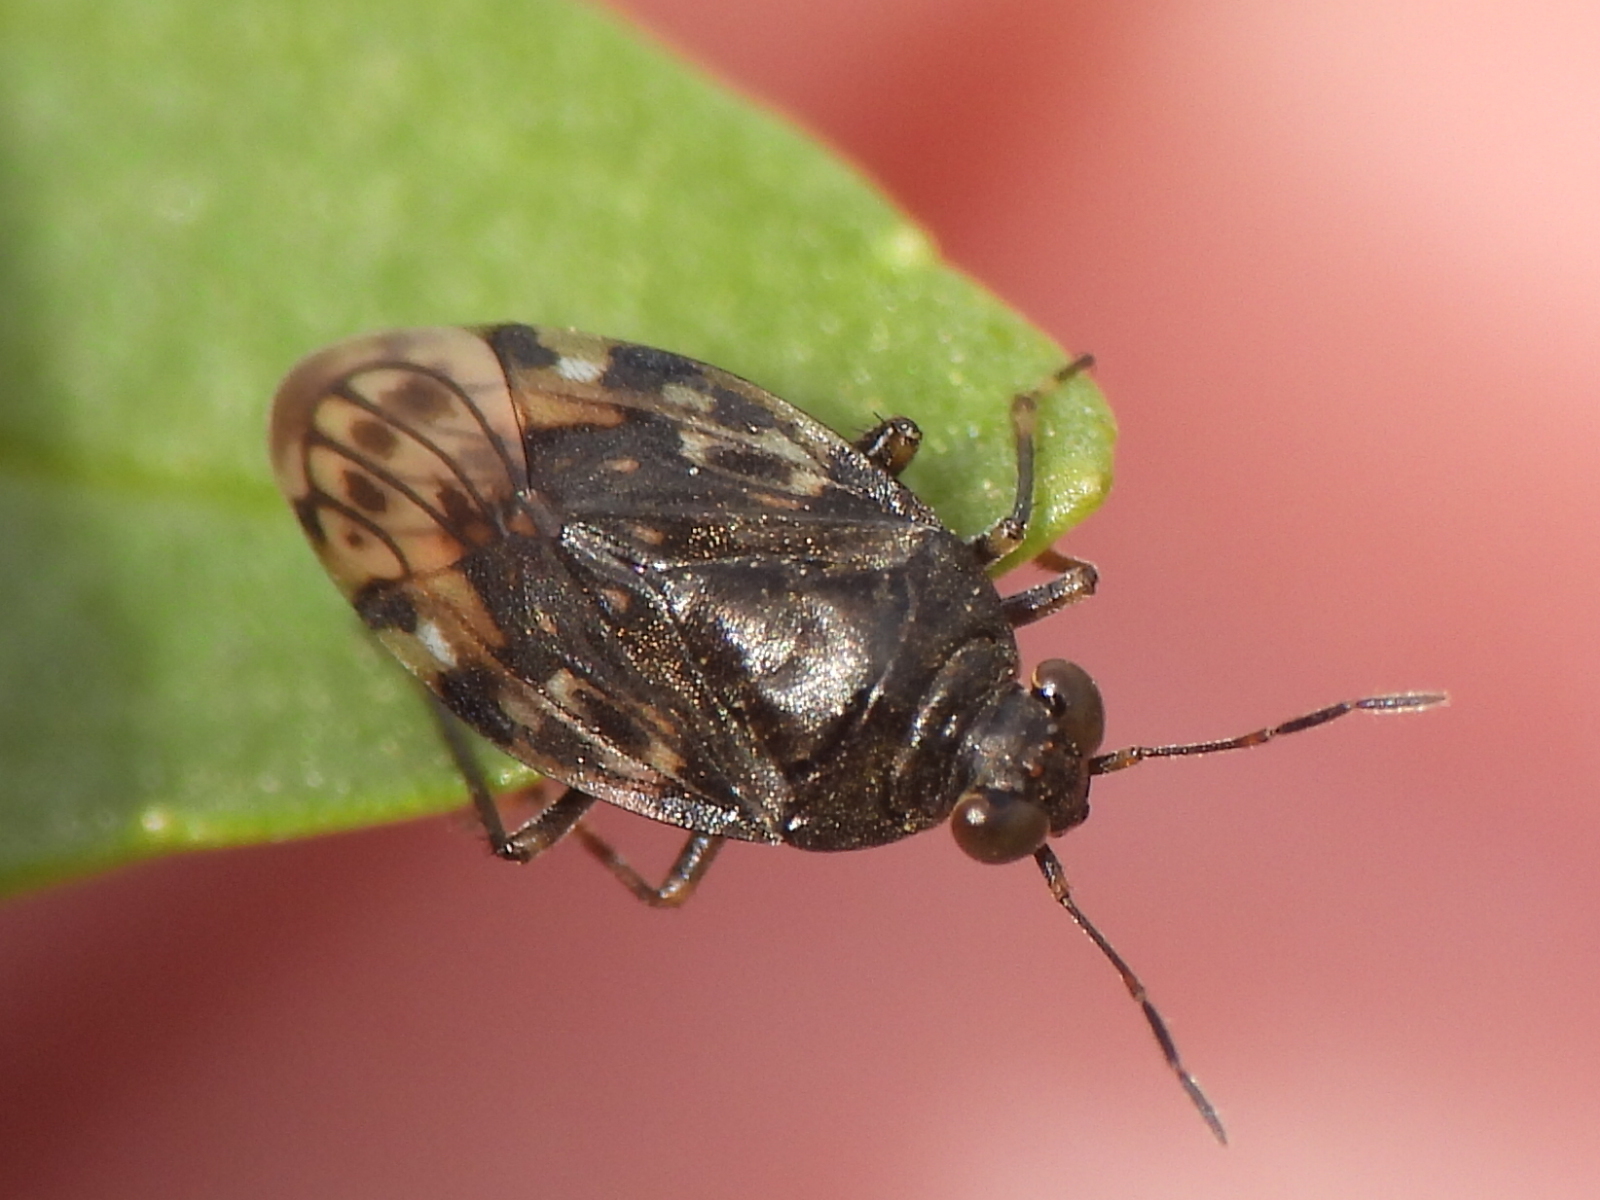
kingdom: Animalia
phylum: Arthropoda
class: Insecta
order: Hemiptera
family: Saldidae
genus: Saldula
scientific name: Saldula
